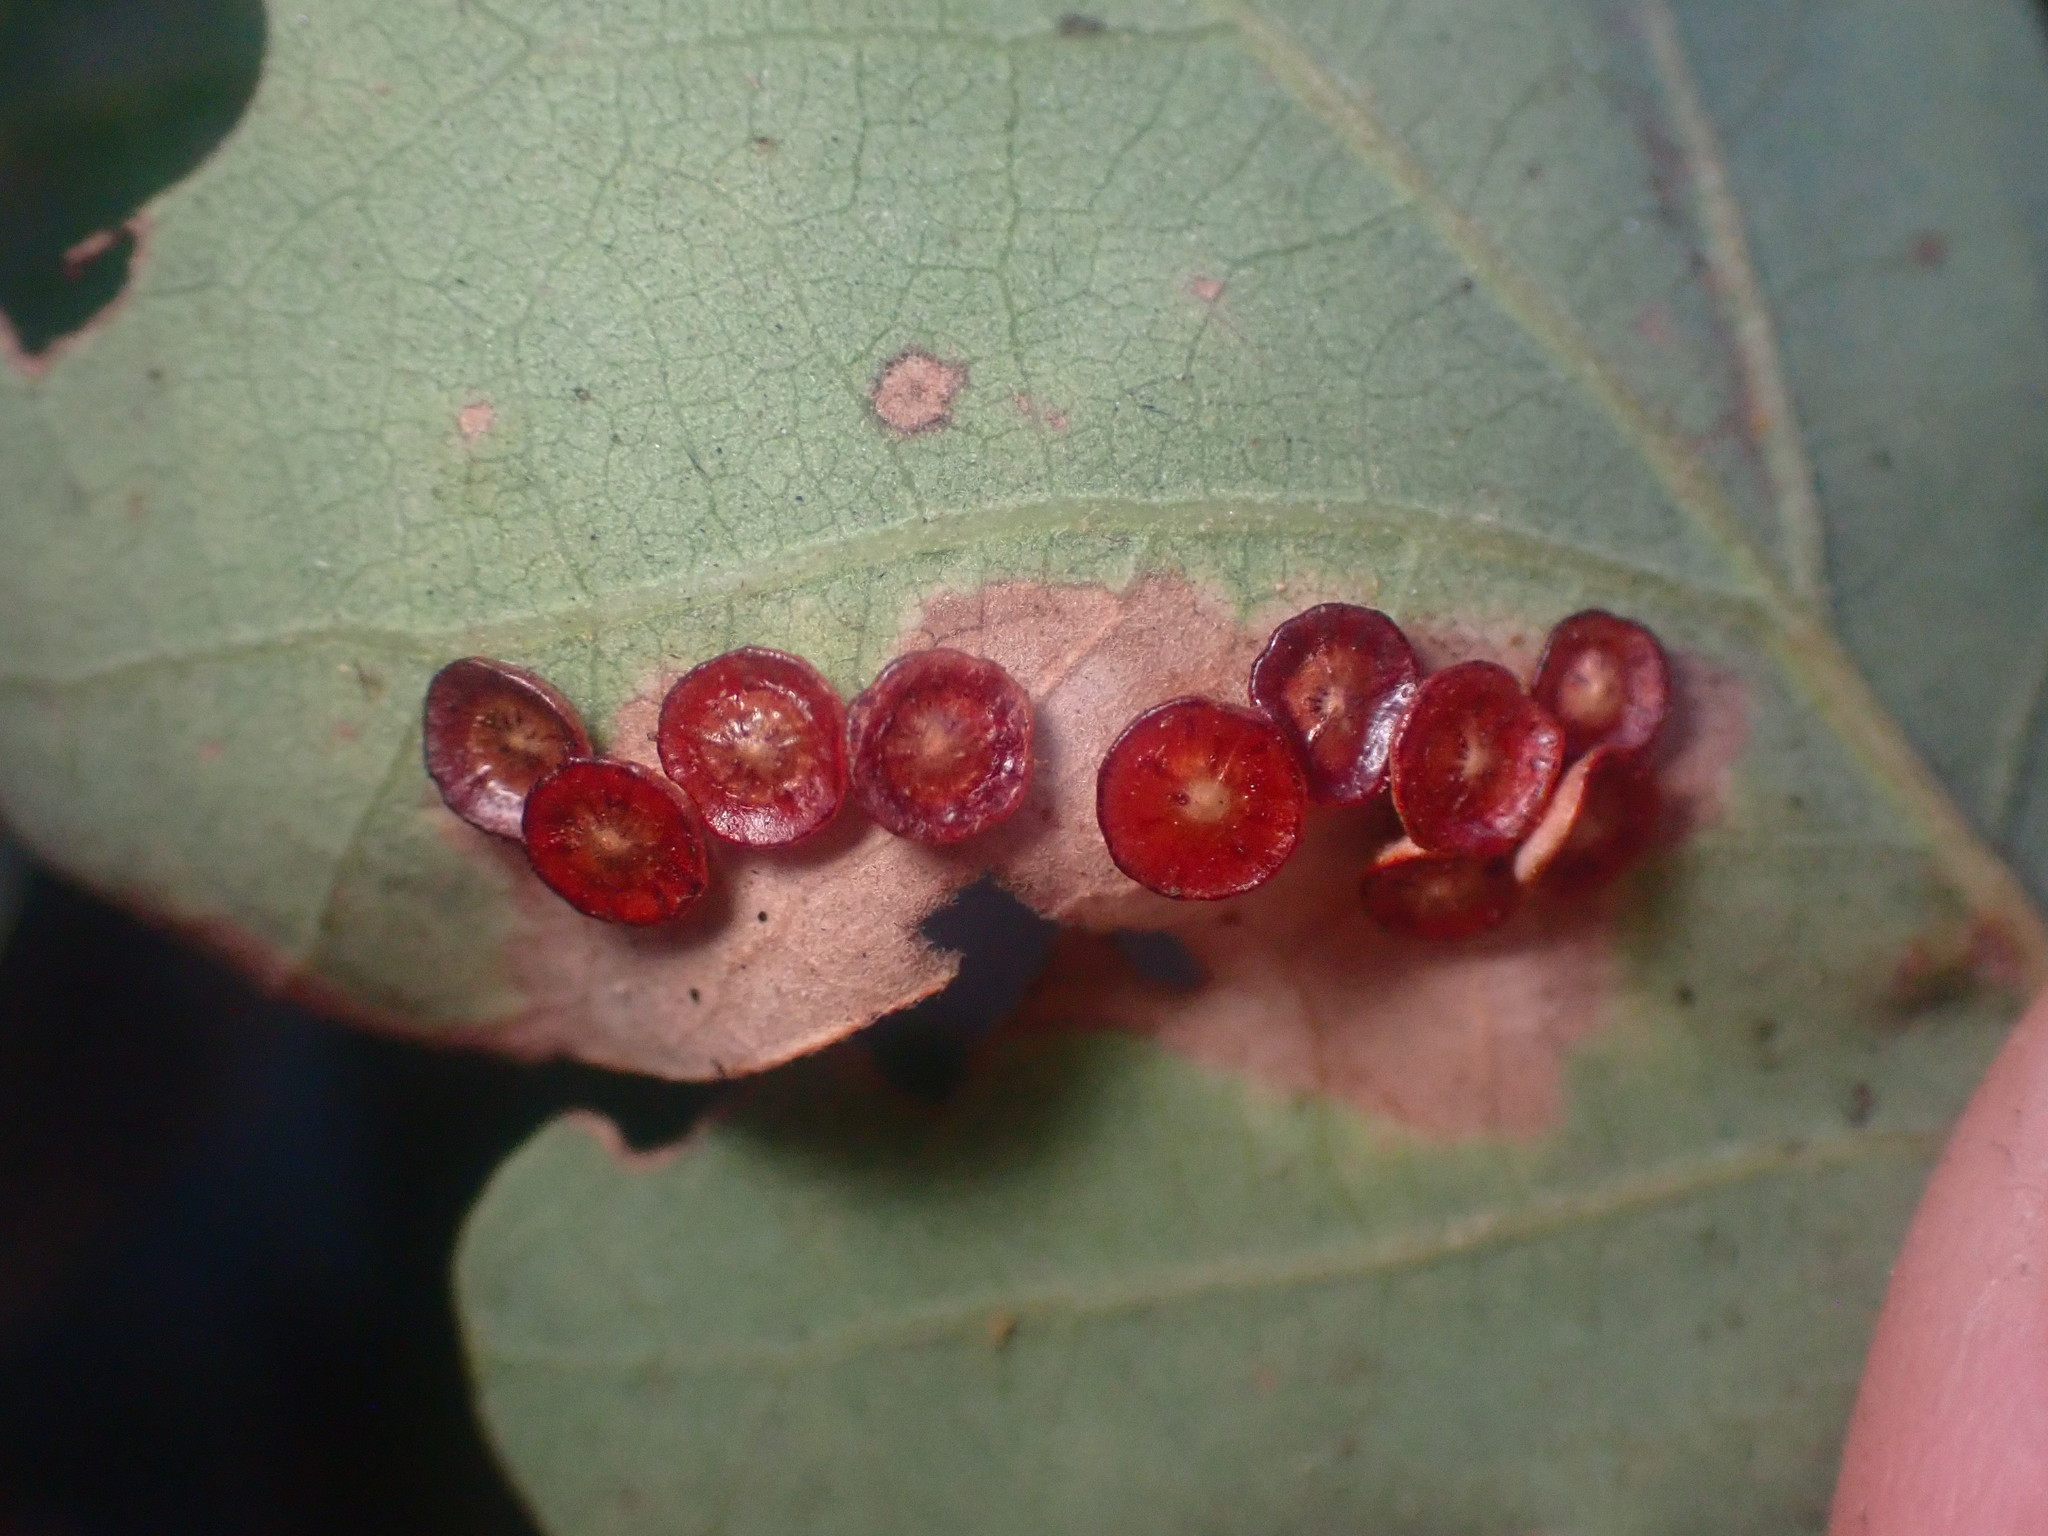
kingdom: Animalia
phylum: Arthropoda
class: Insecta
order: Hymenoptera
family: Cynipidae
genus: Andricus
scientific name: Andricus
